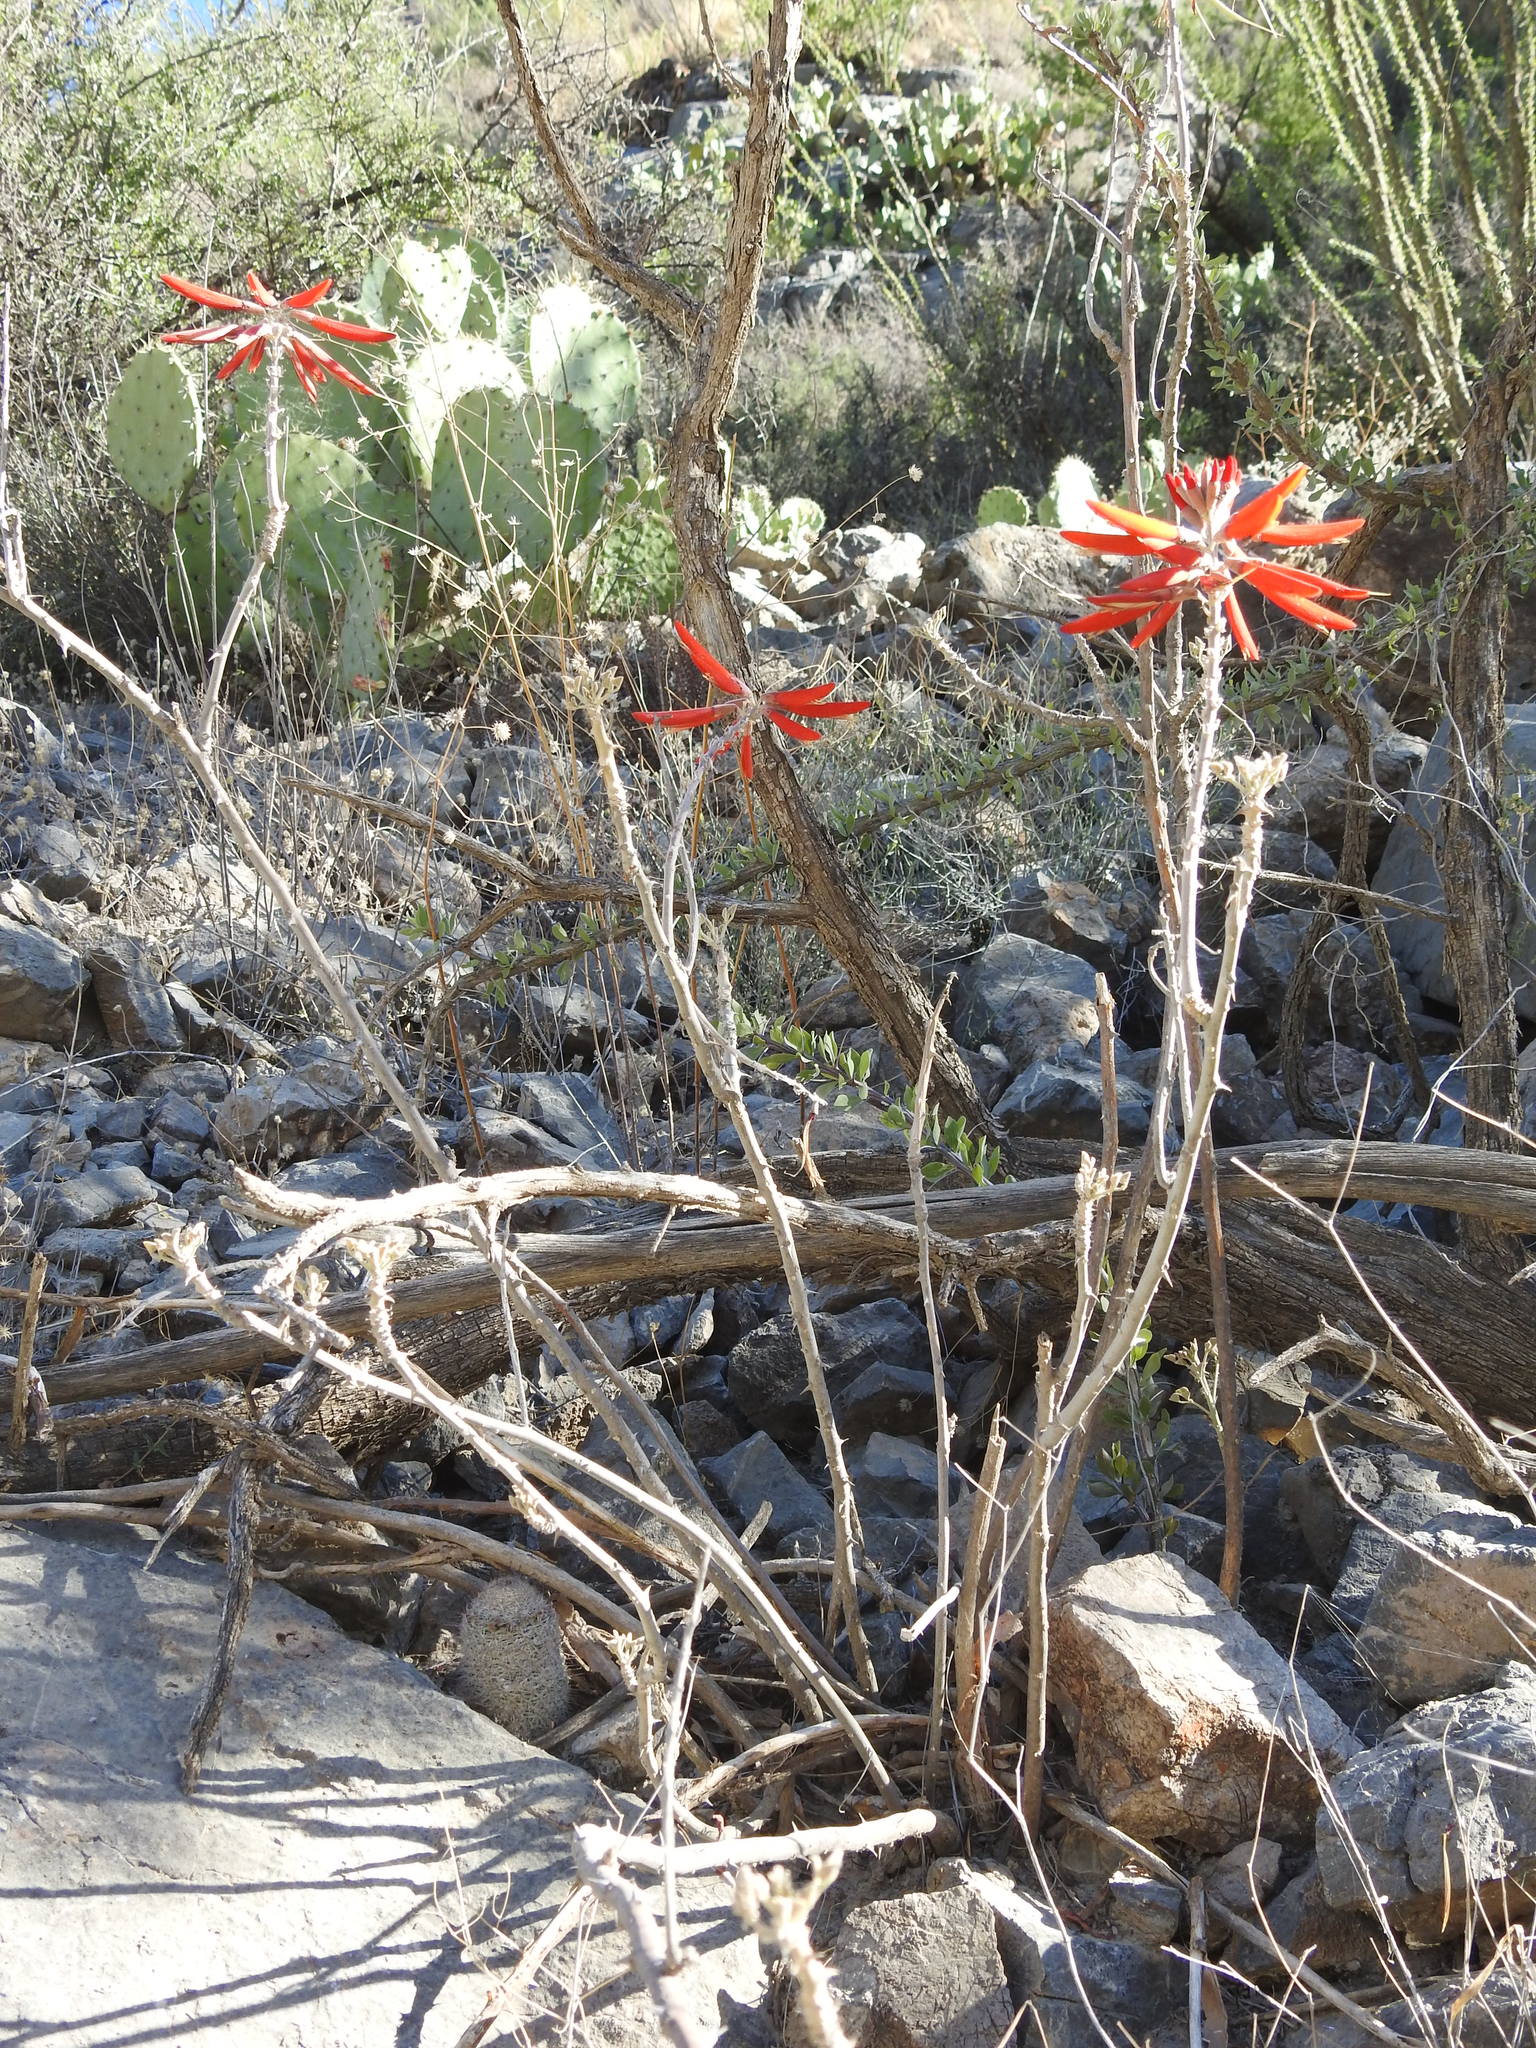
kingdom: Plantae
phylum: Tracheophyta
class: Magnoliopsida
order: Fabales
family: Fabaceae
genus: Erythrina
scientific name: Erythrina flabelliformis
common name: Chilicote
